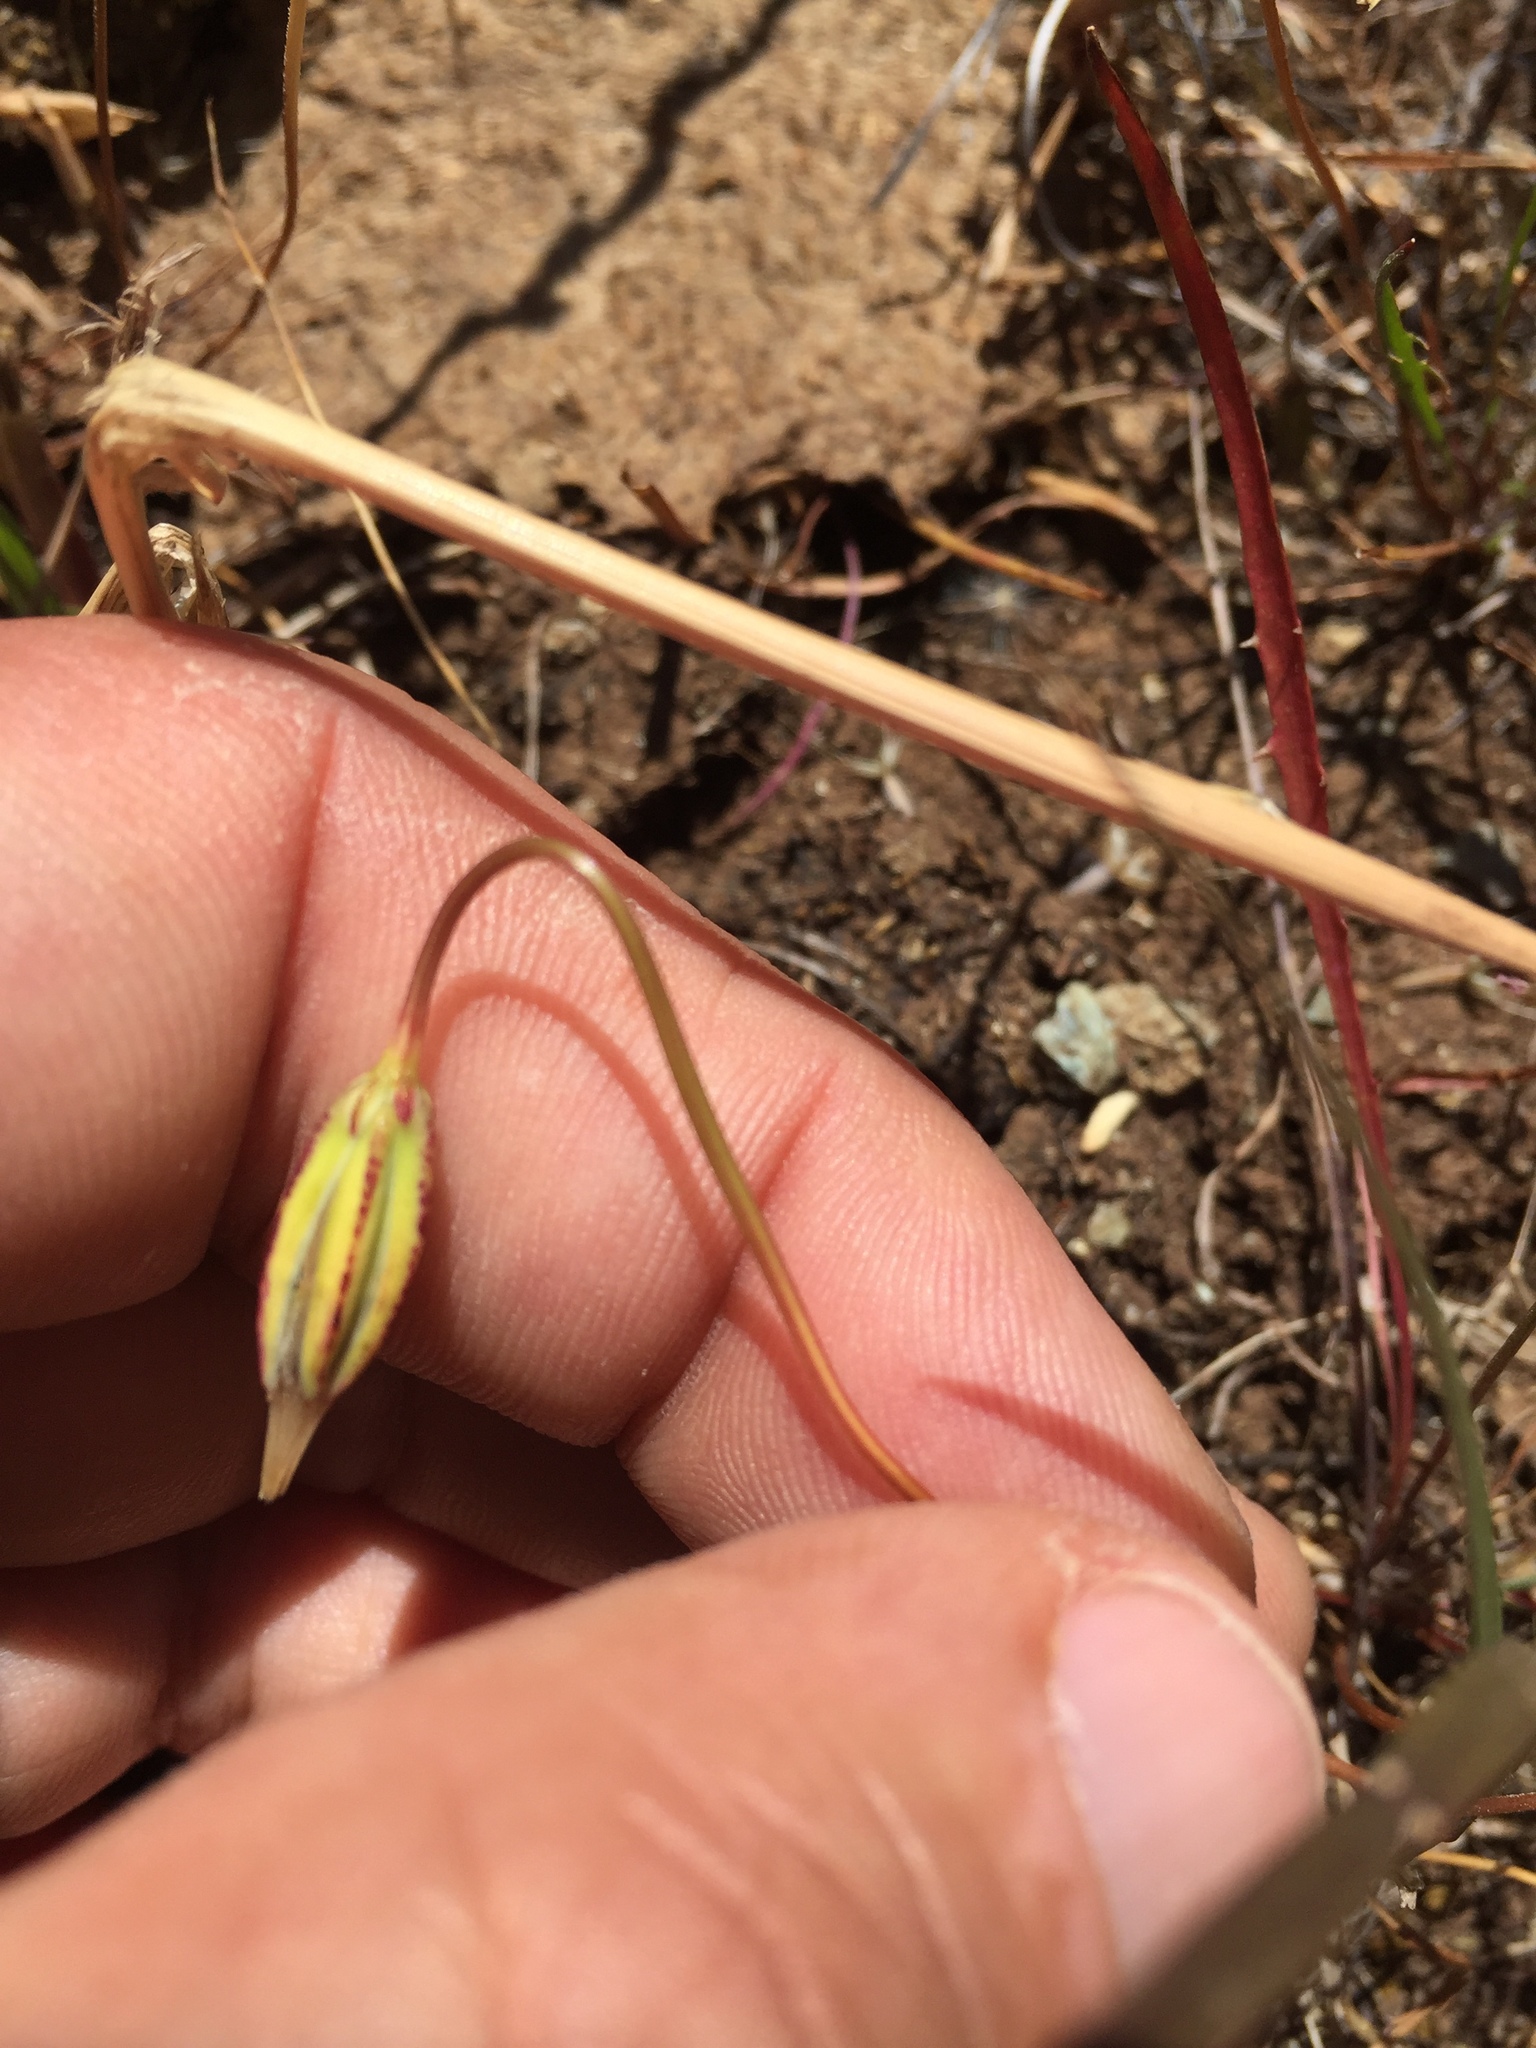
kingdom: Plantae
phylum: Tracheophyta
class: Magnoliopsida
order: Asterales
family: Asteraceae
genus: Microseris
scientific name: Microseris douglasii
